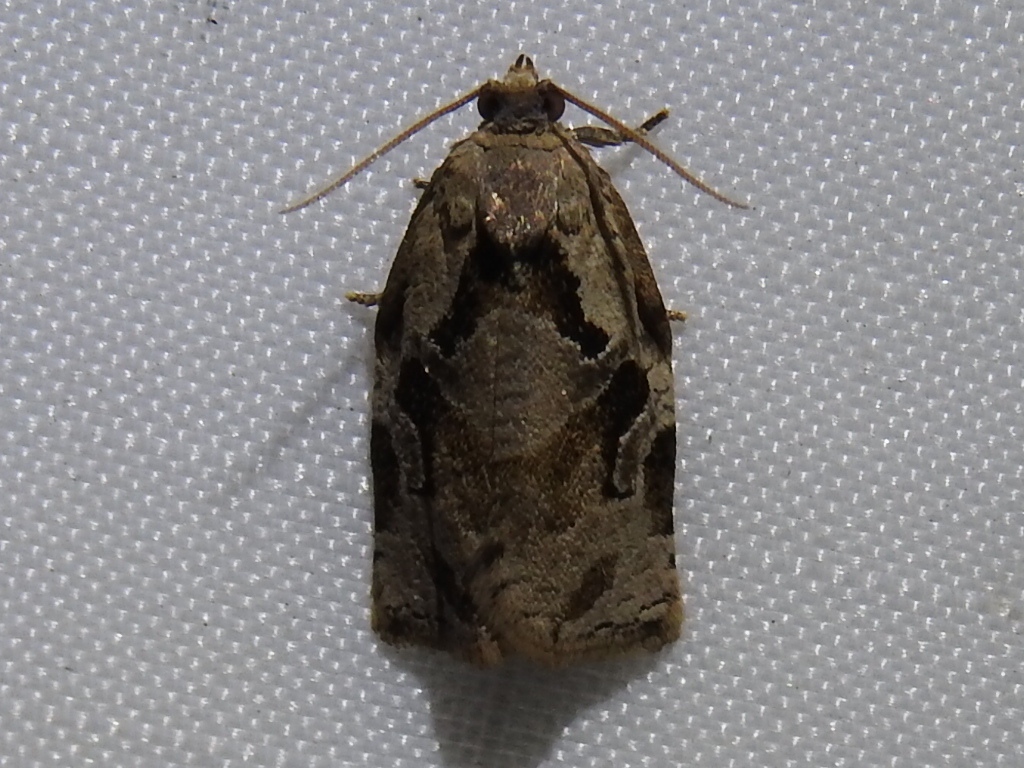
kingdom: Animalia
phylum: Arthropoda
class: Insecta
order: Lepidoptera
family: Tortricidae
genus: Archips
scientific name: Archips grisea
